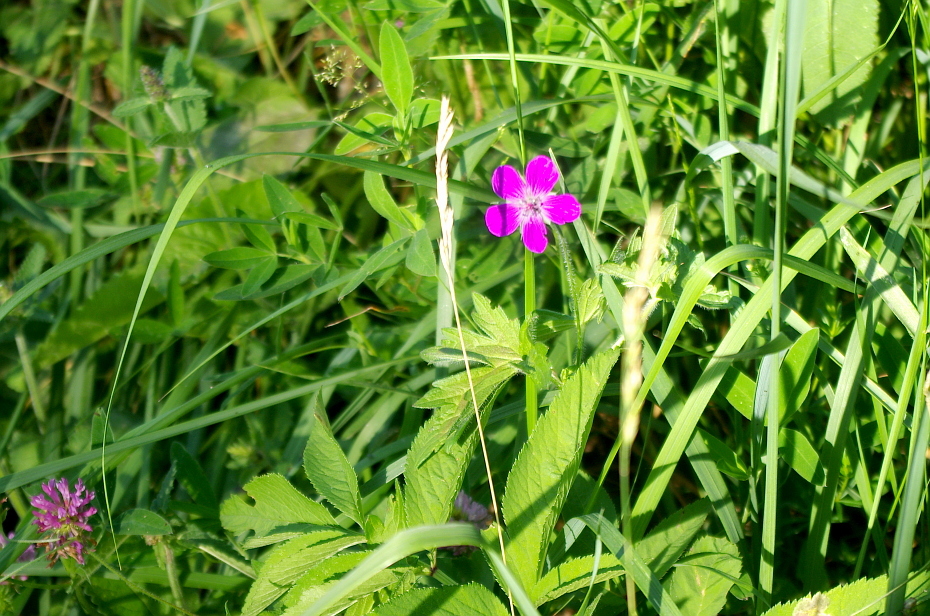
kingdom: Plantae
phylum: Tracheophyta
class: Magnoliopsida
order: Geraniales
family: Geraniaceae
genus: Geranium
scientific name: Geranium palustre
